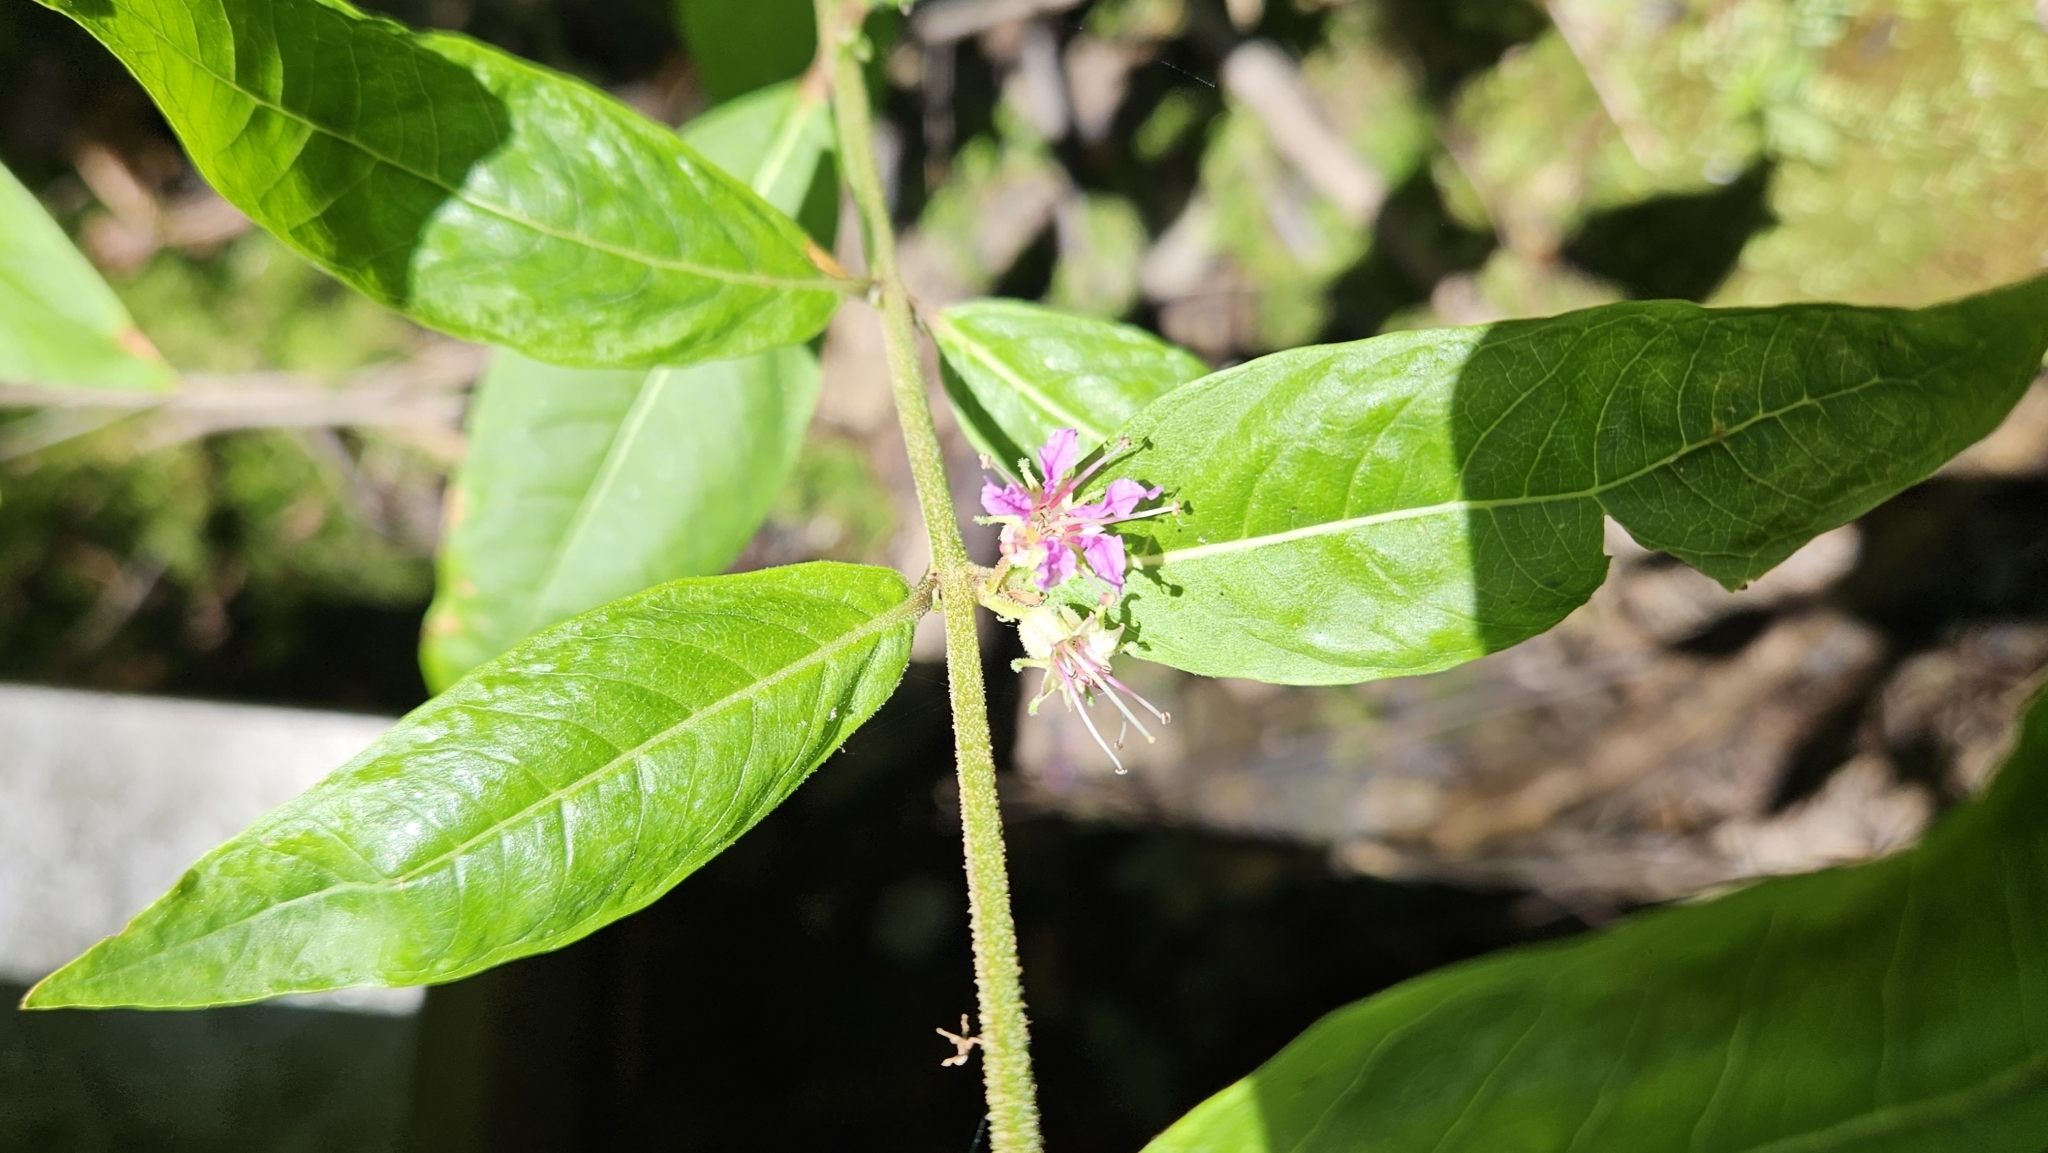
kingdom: Plantae
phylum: Tracheophyta
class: Magnoliopsida
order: Myrtales
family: Lythraceae
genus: Decodon
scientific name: Decodon verticillatus
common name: Hairy swamp loosestrife
